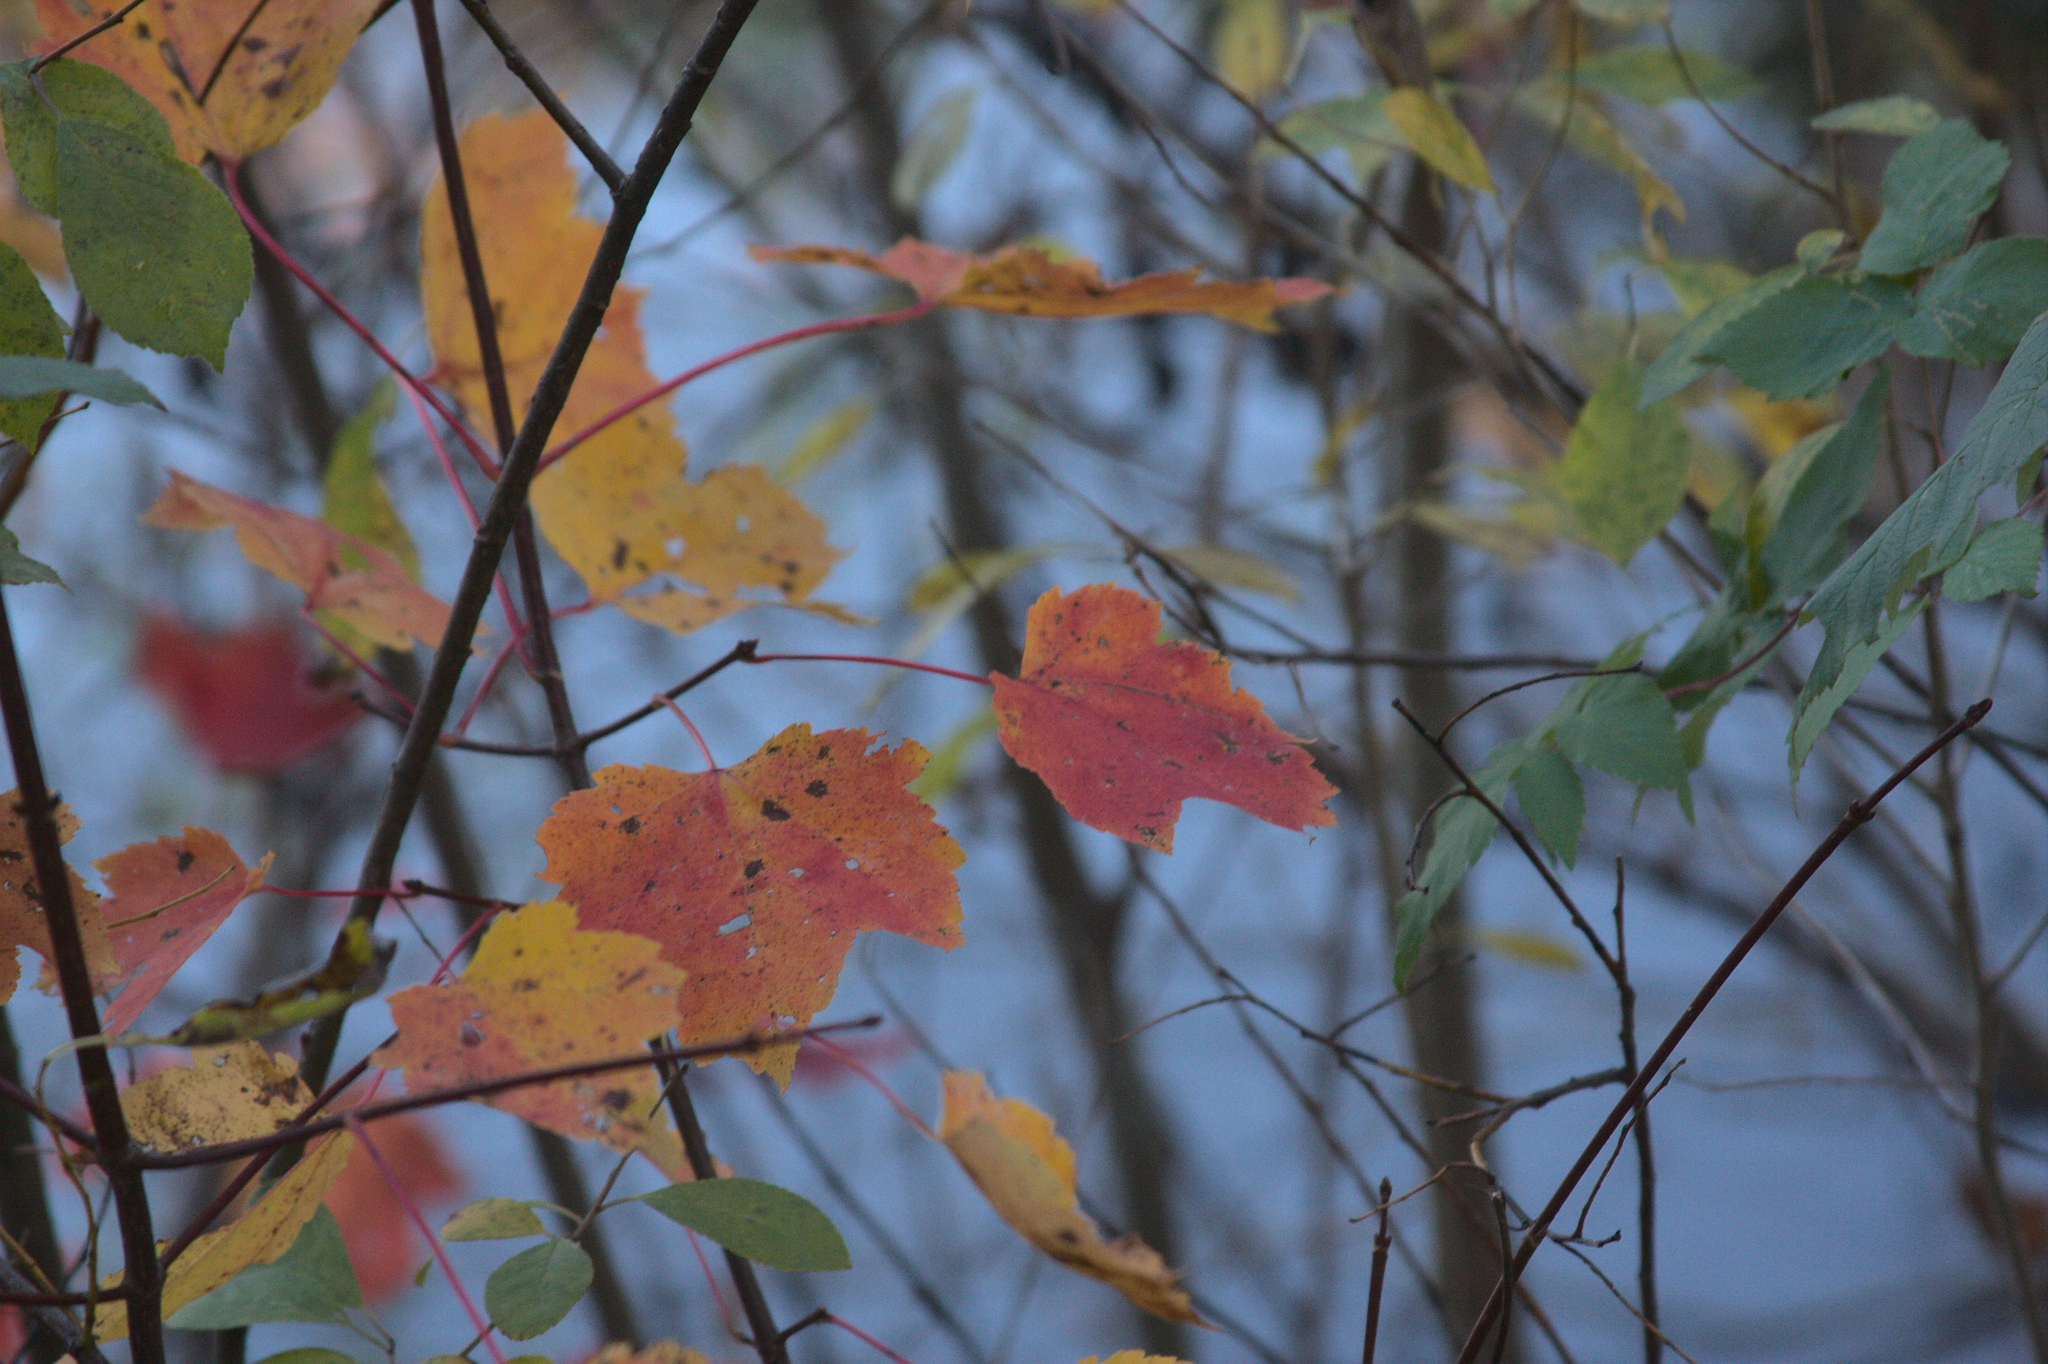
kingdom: Plantae
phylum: Tracheophyta
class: Magnoliopsida
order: Sapindales
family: Sapindaceae
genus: Acer
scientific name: Acer rubrum
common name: Red maple
